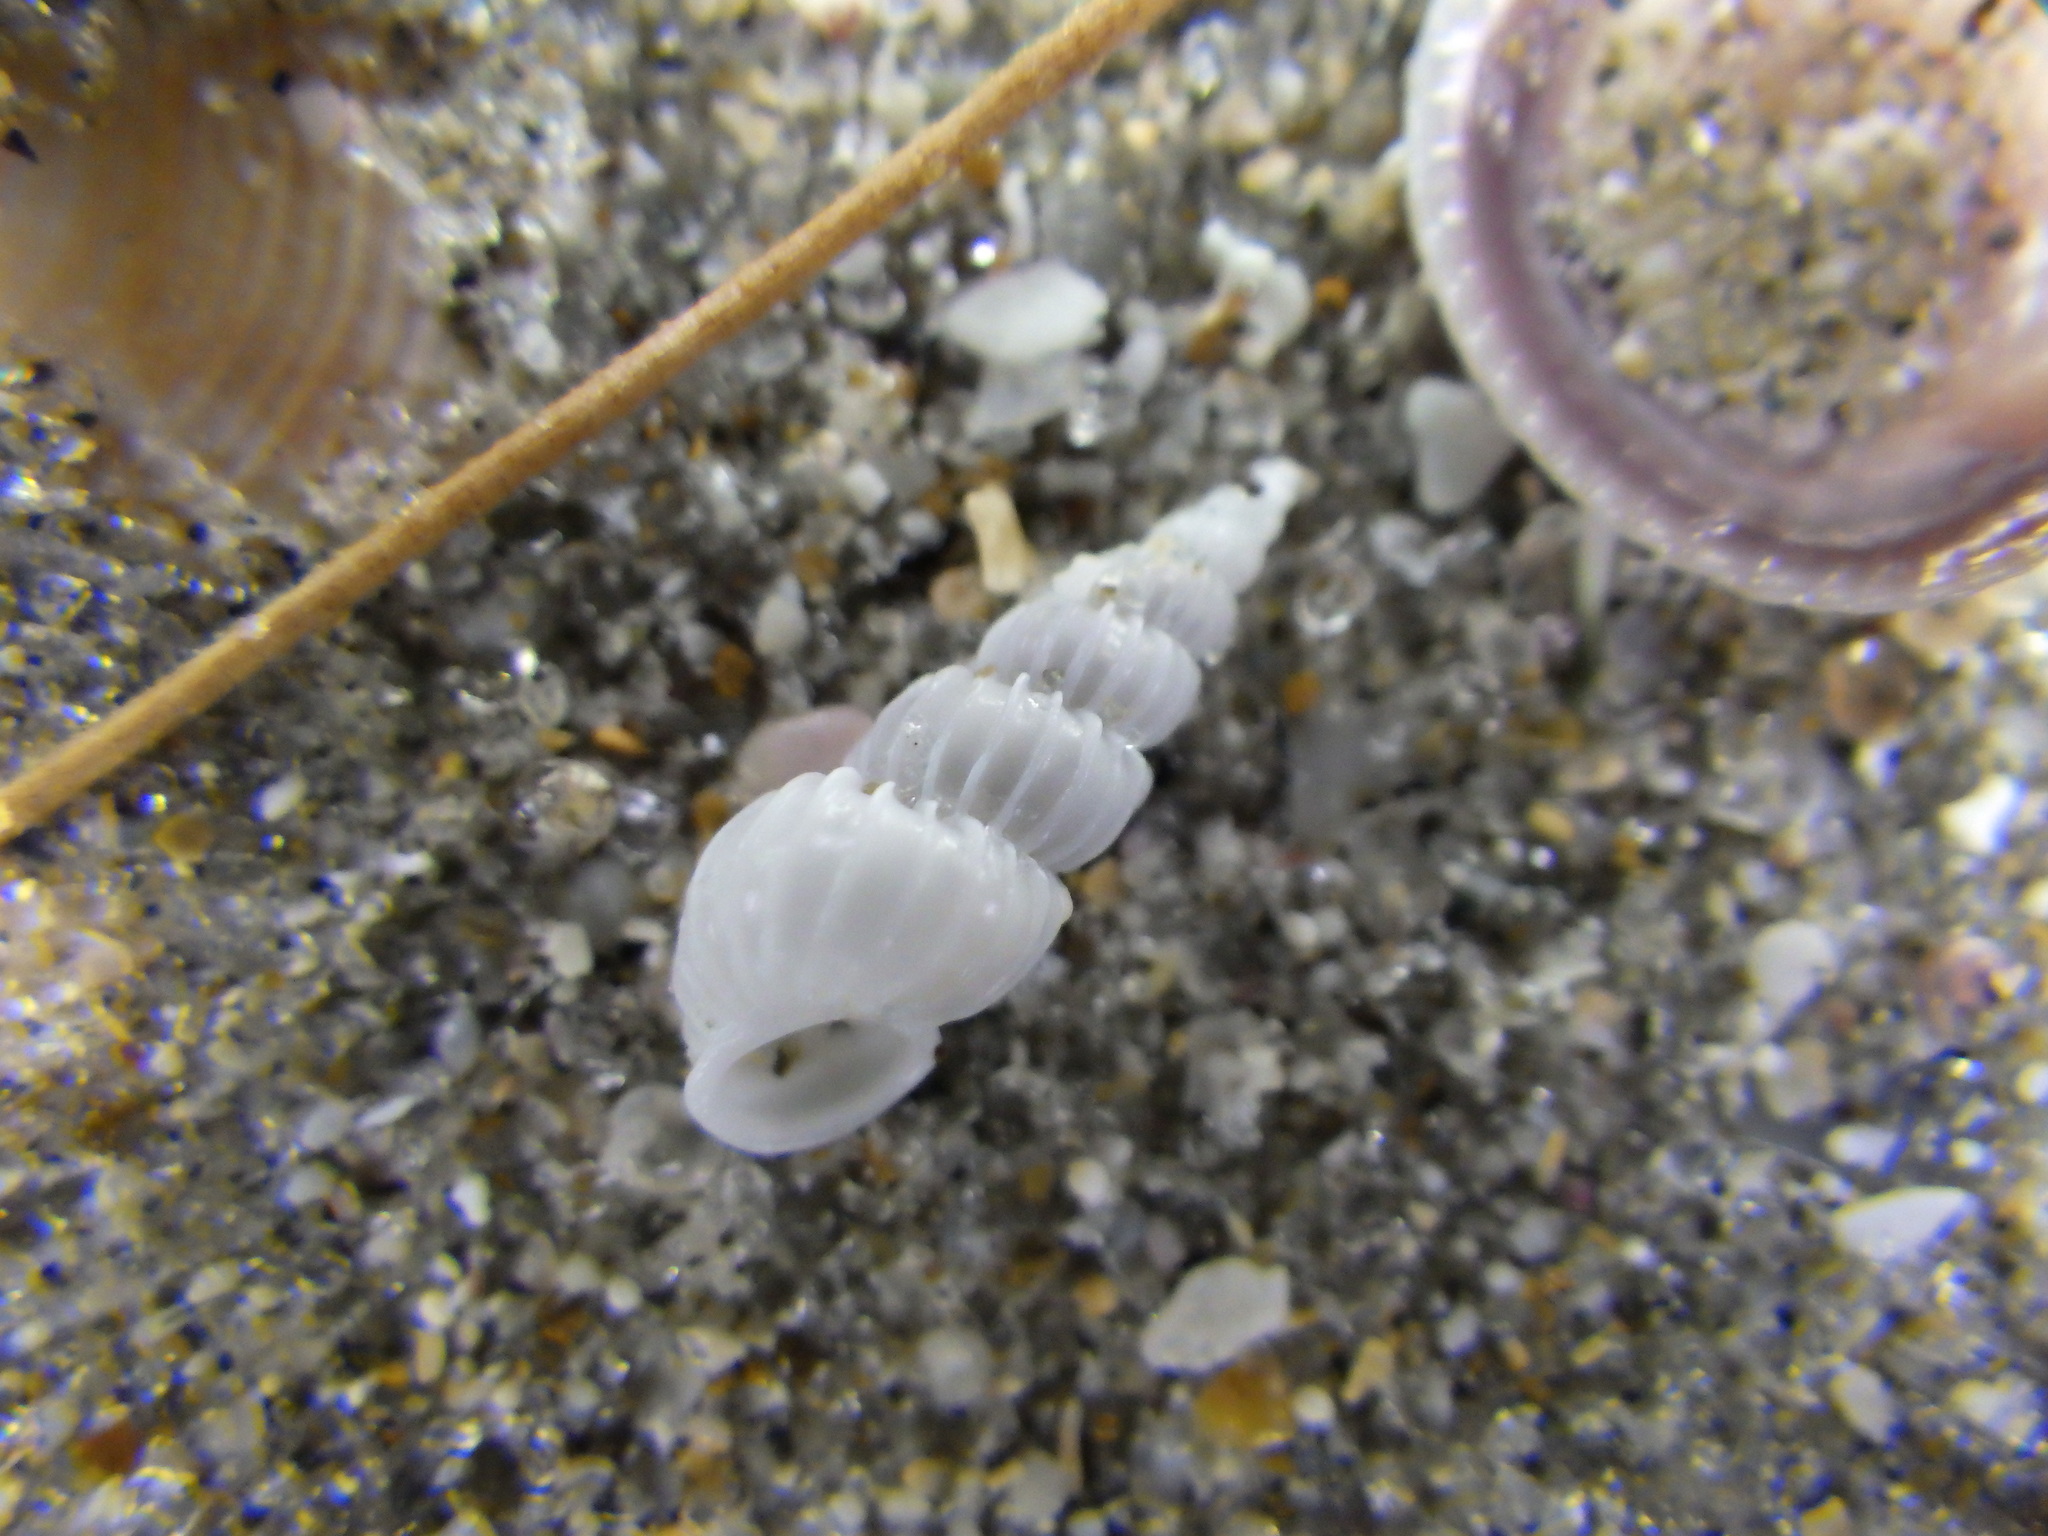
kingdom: Animalia
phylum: Mollusca
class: Gastropoda
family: Epitoniidae
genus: Epitonium
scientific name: Epitonium jukesianum
